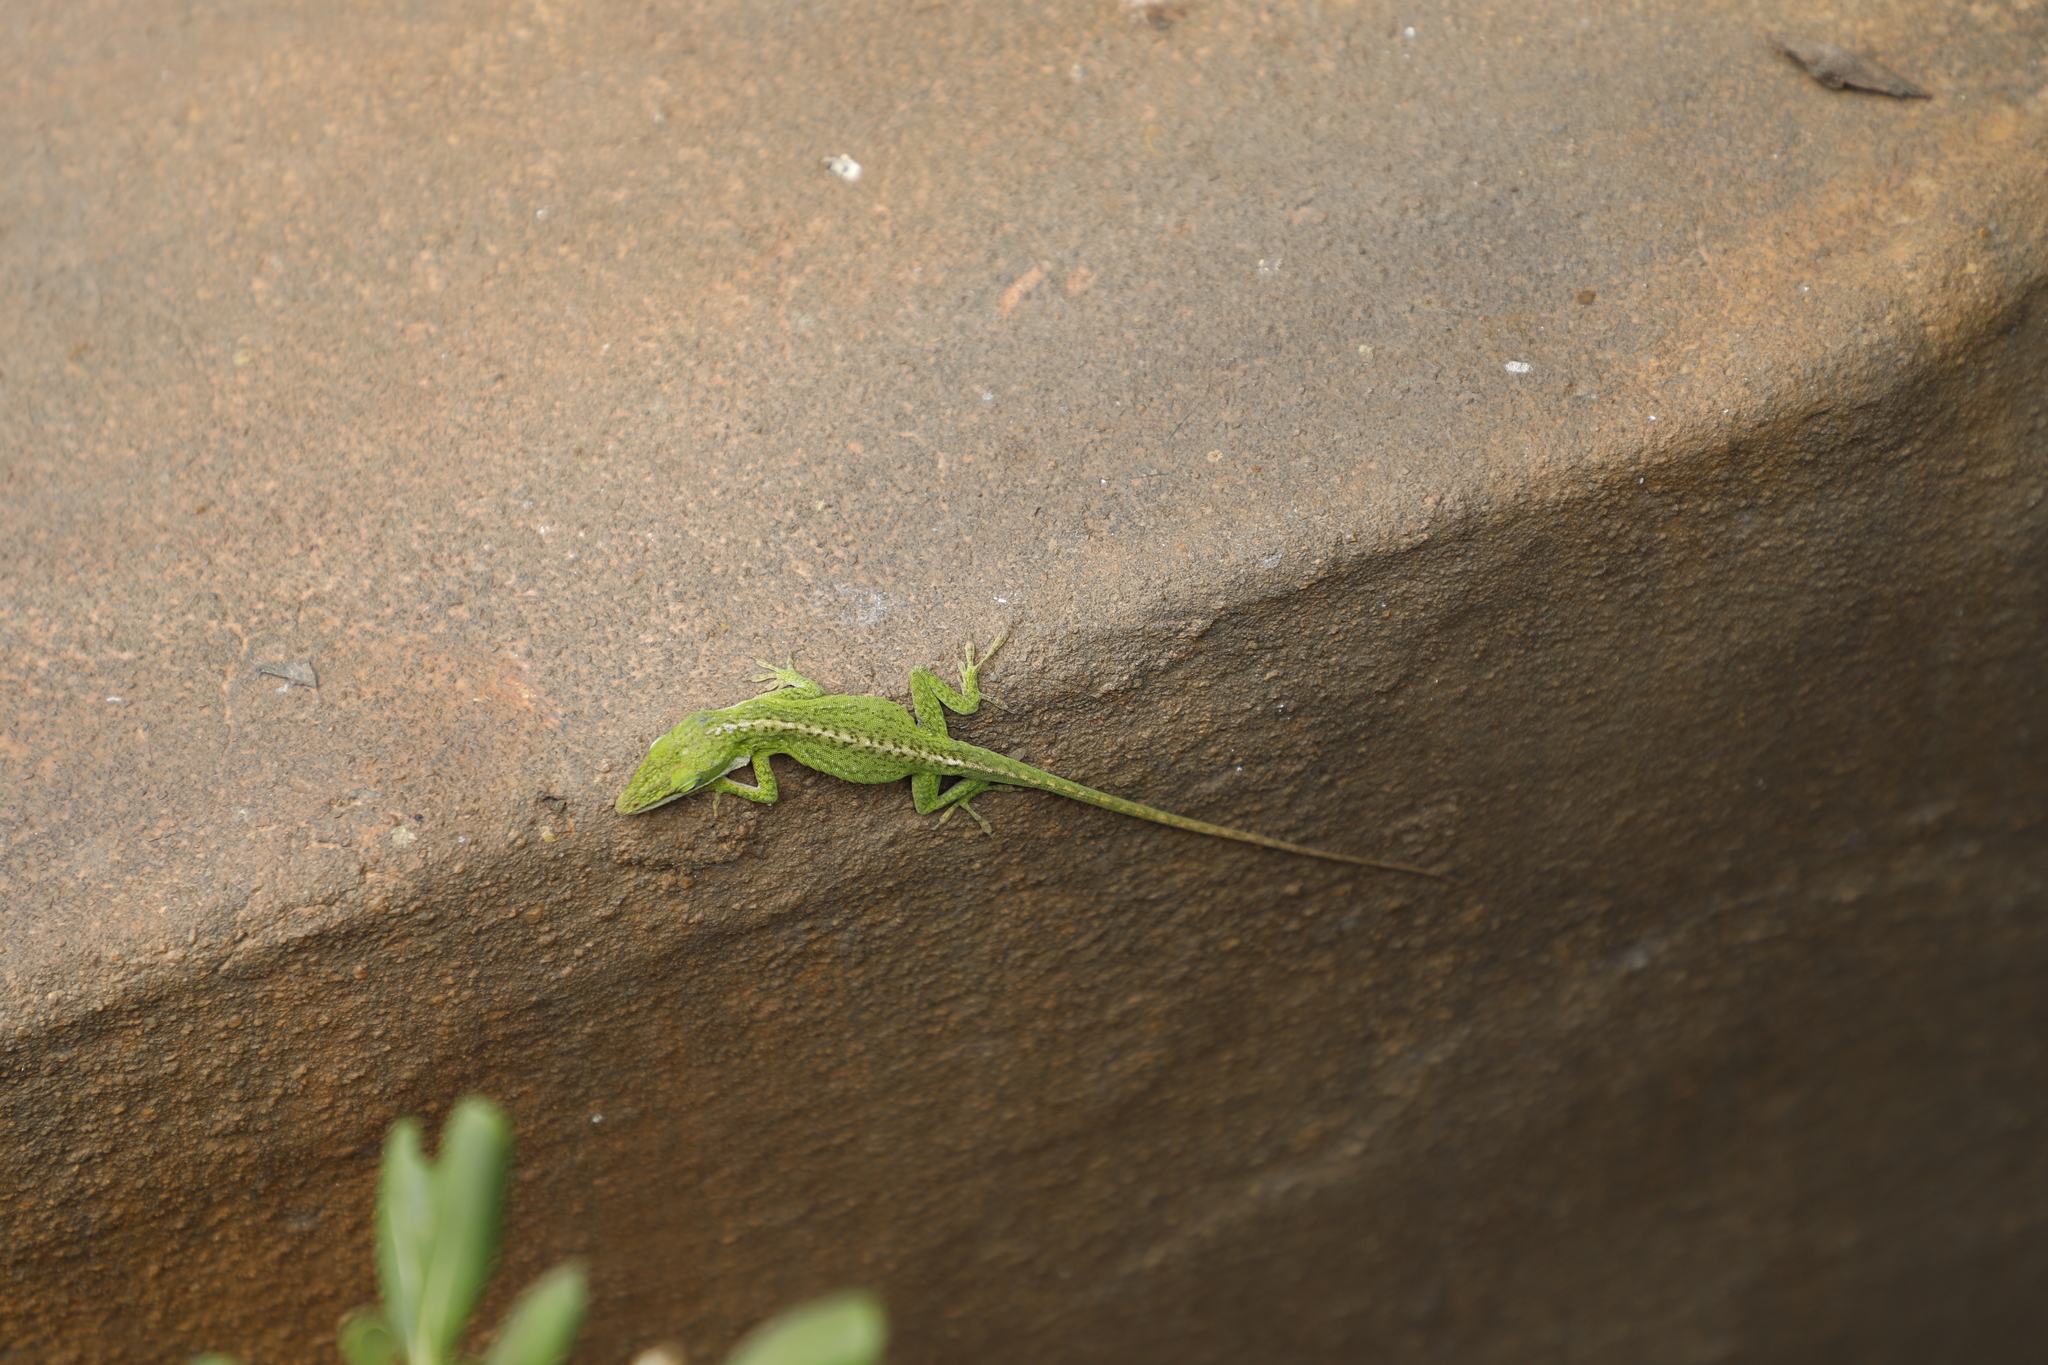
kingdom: Animalia
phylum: Chordata
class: Squamata
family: Dactyloidae
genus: Anolis
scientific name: Anolis carolinensis
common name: Green anole
